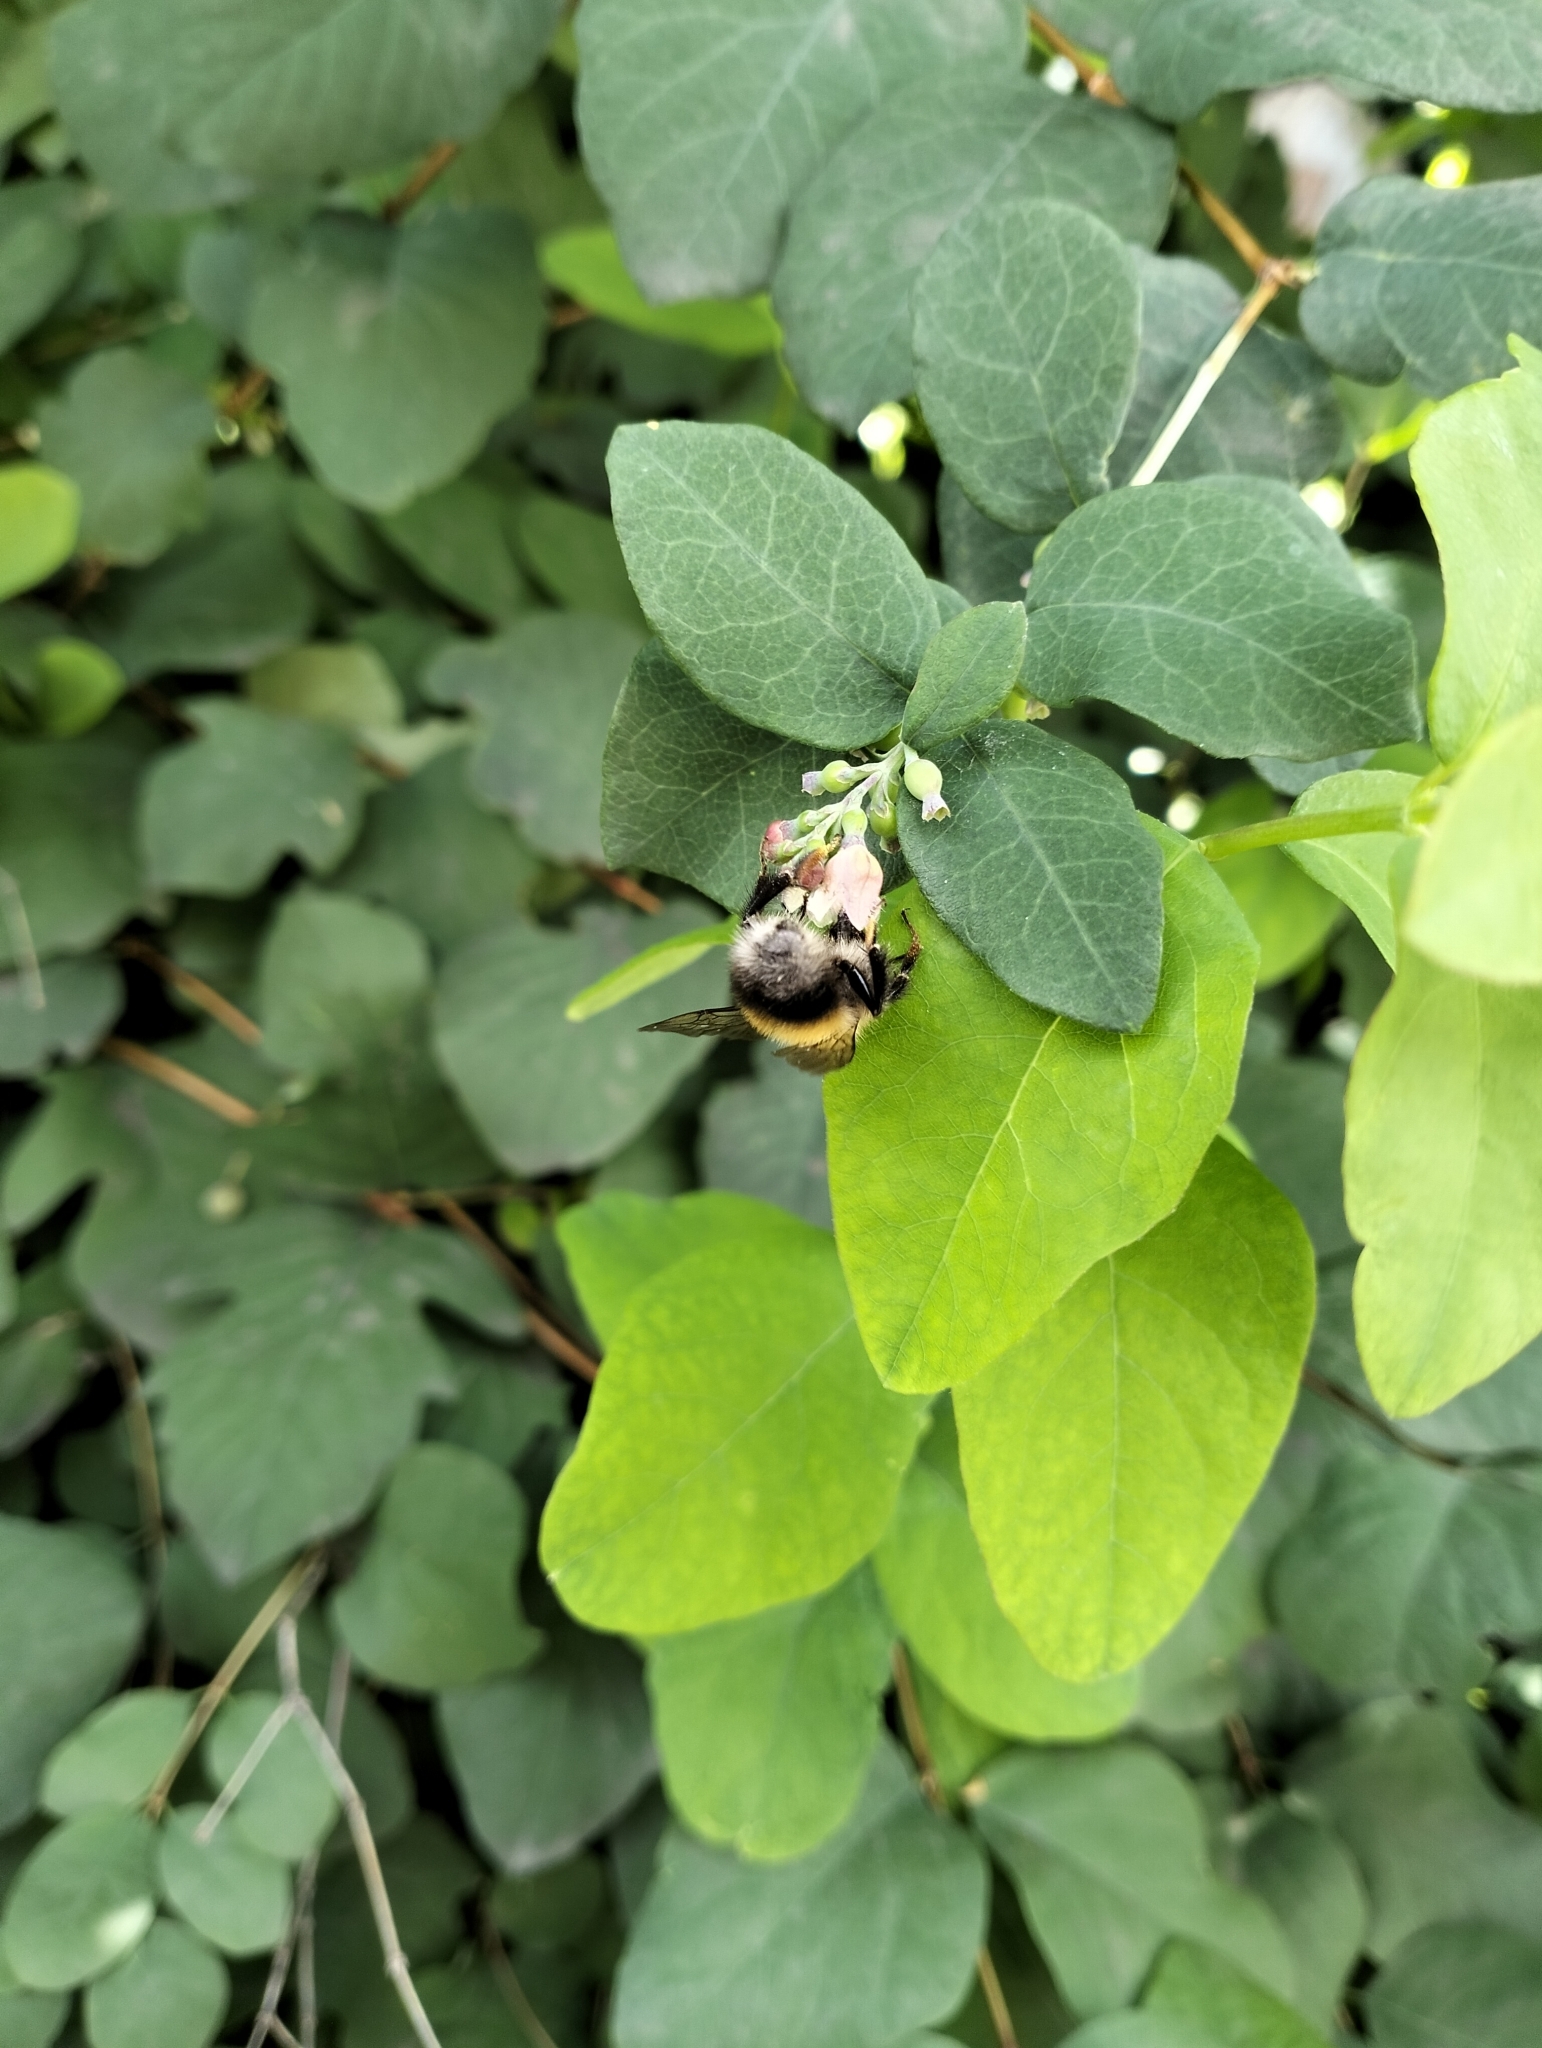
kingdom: Animalia
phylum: Arthropoda
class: Insecta
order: Hymenoptera
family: Apidae
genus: Bombus
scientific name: Bombus hypnorum
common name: New garden bumblebee
